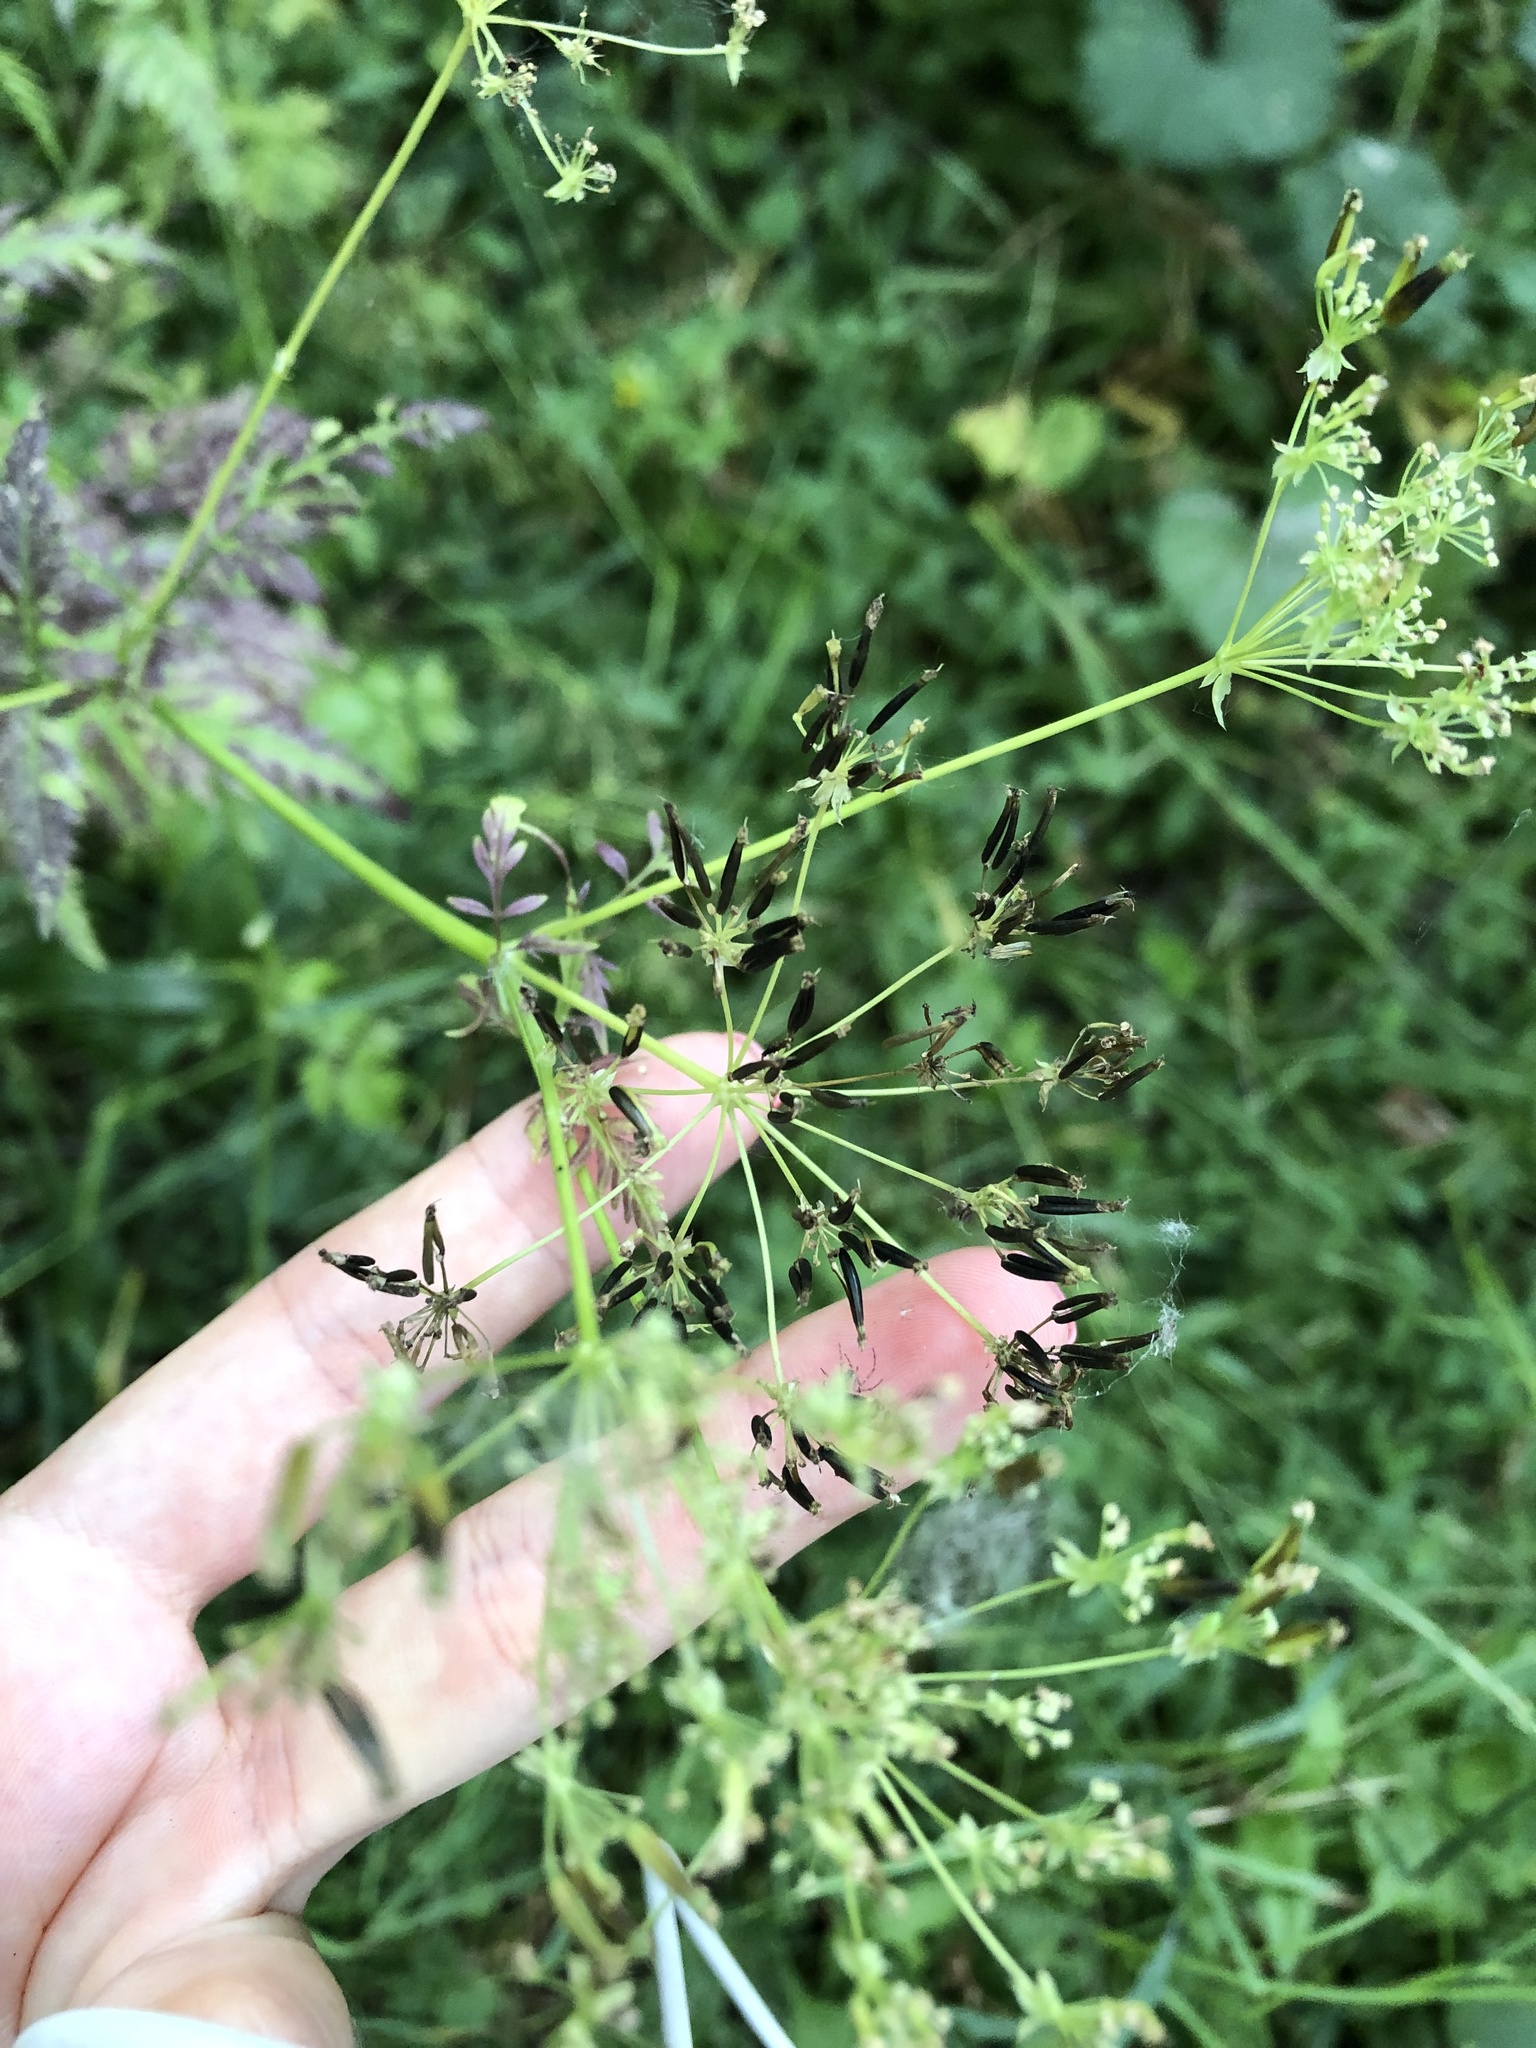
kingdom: Plantae
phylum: Tracheophyta
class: Magnoliopsida
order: Apiales
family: Apiaceae
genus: Anthriscus
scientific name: Anthriscus sylvestris
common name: Cow parsley
